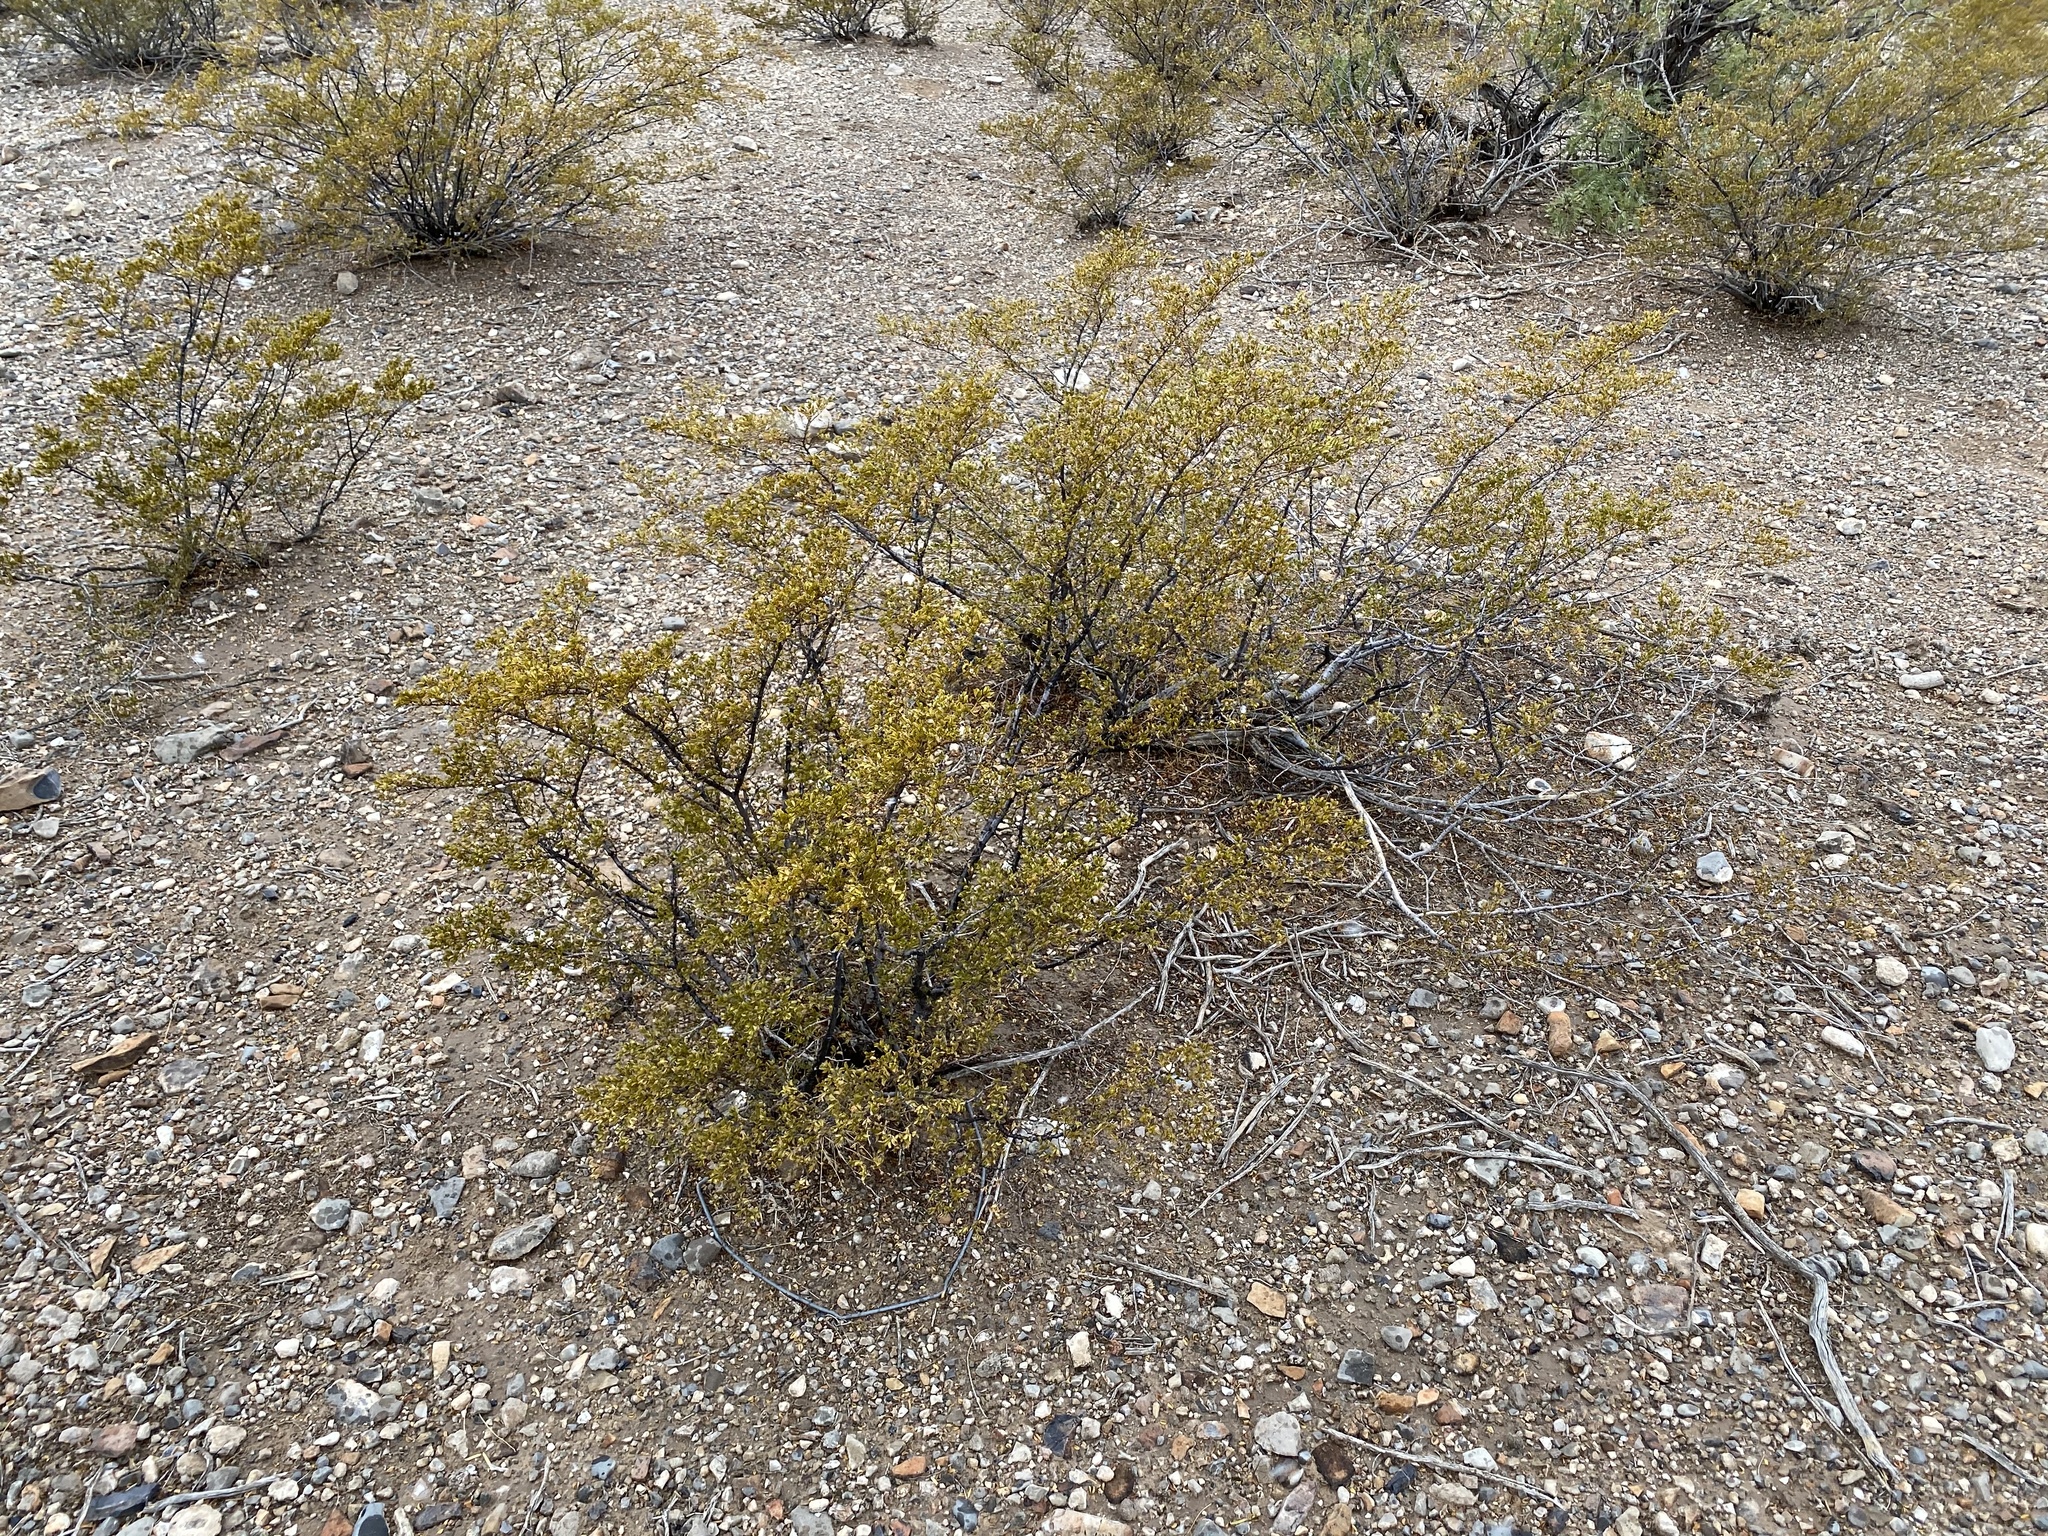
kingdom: Plantae
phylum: Tracheophyta
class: Magnoliopsida
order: Zygophyllales
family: Zygophyllaceae
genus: Larrea
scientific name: Larrea tridentata
